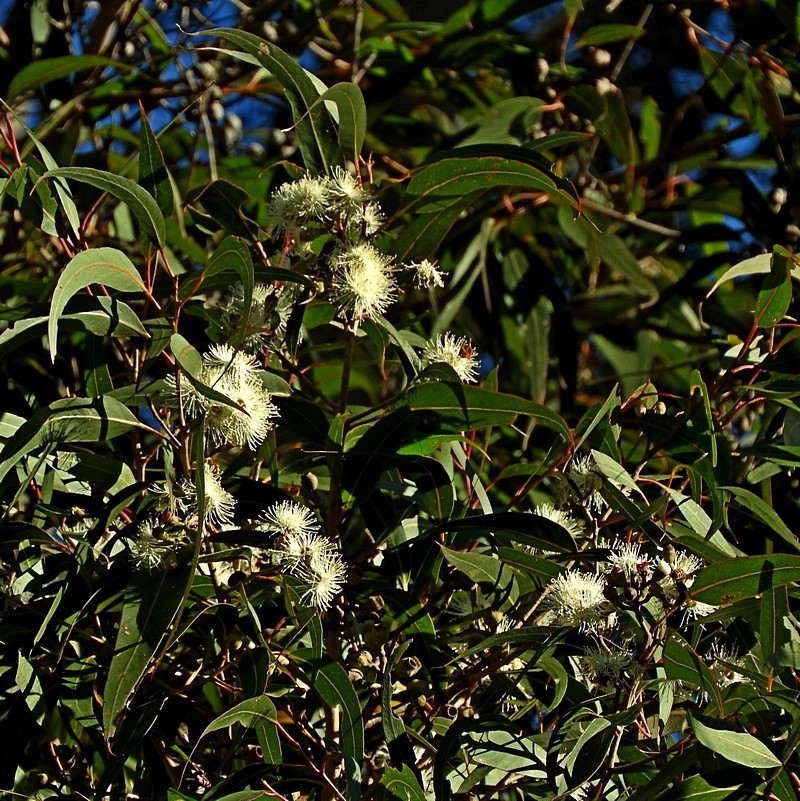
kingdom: Plantae
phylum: Tracheophyta
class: Magnoliopsida
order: Myrtales
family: Myrtaceae
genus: Corymbia
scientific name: Corymbia maculata
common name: Spotted gum
